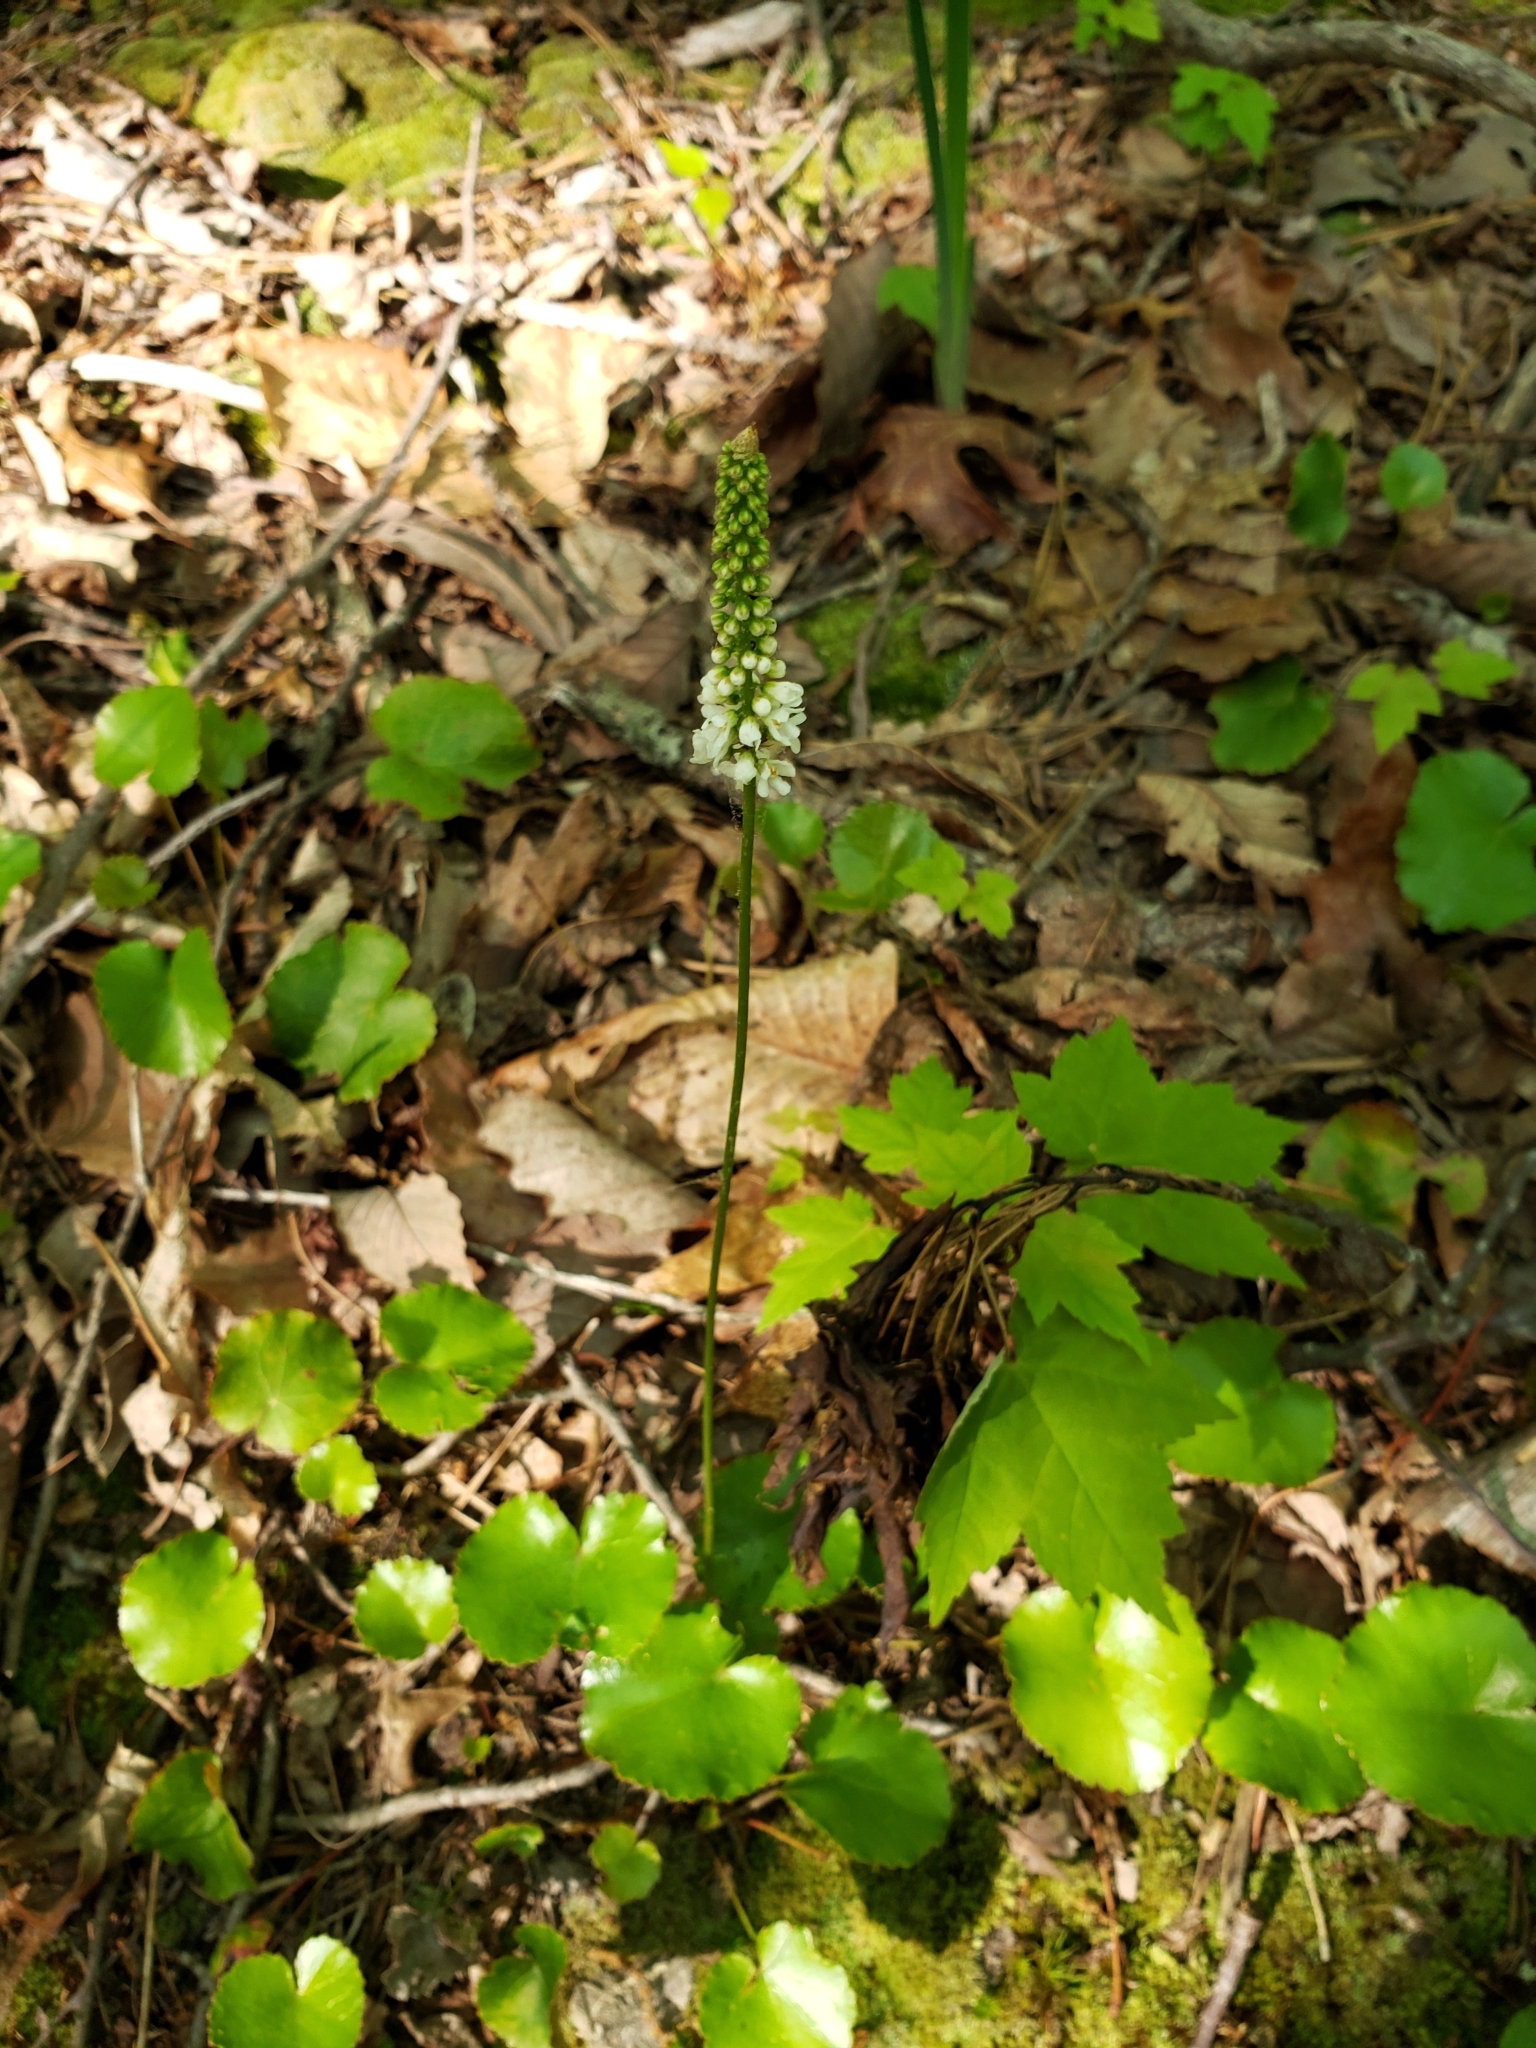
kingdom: Plantae
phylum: Tracheophyta
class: Magnoliopsida
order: Ericales
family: Diapensiaceae
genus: Galax
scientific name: Galax urceolata
